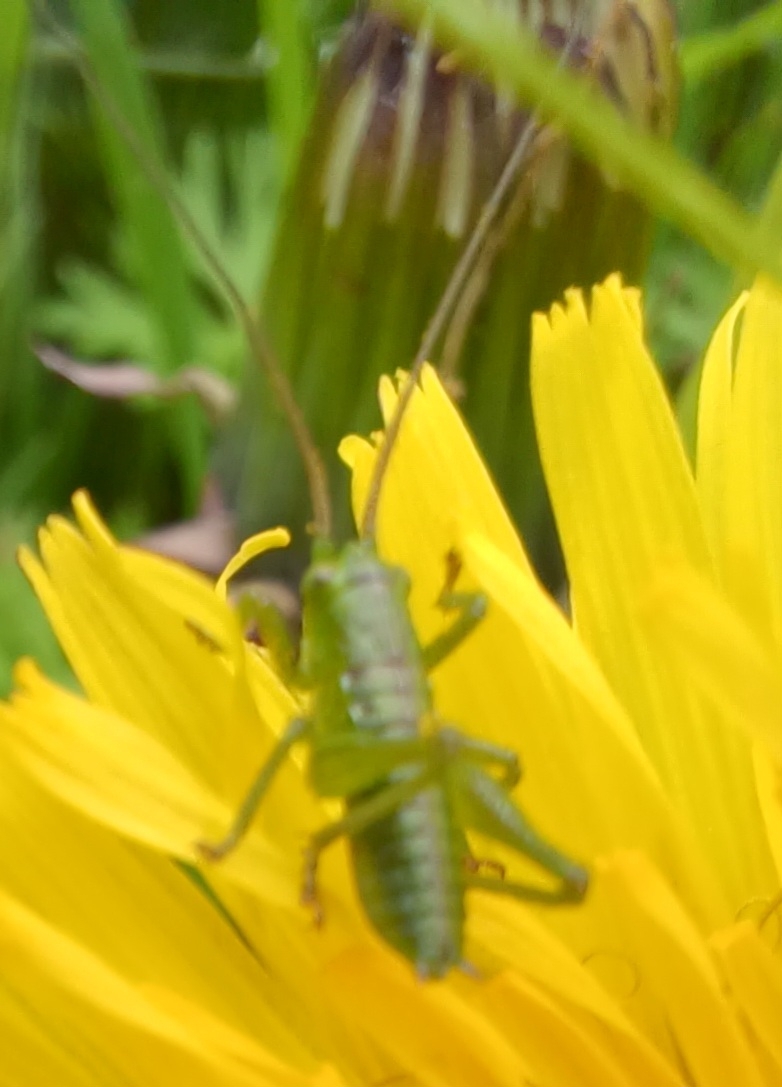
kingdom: Animalia
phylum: Arthropoda
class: Insecta
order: Orthoptera
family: Tettigoniidae
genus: Tettigonia
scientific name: Tettigonia viridissima
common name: Great green bush-cricket
